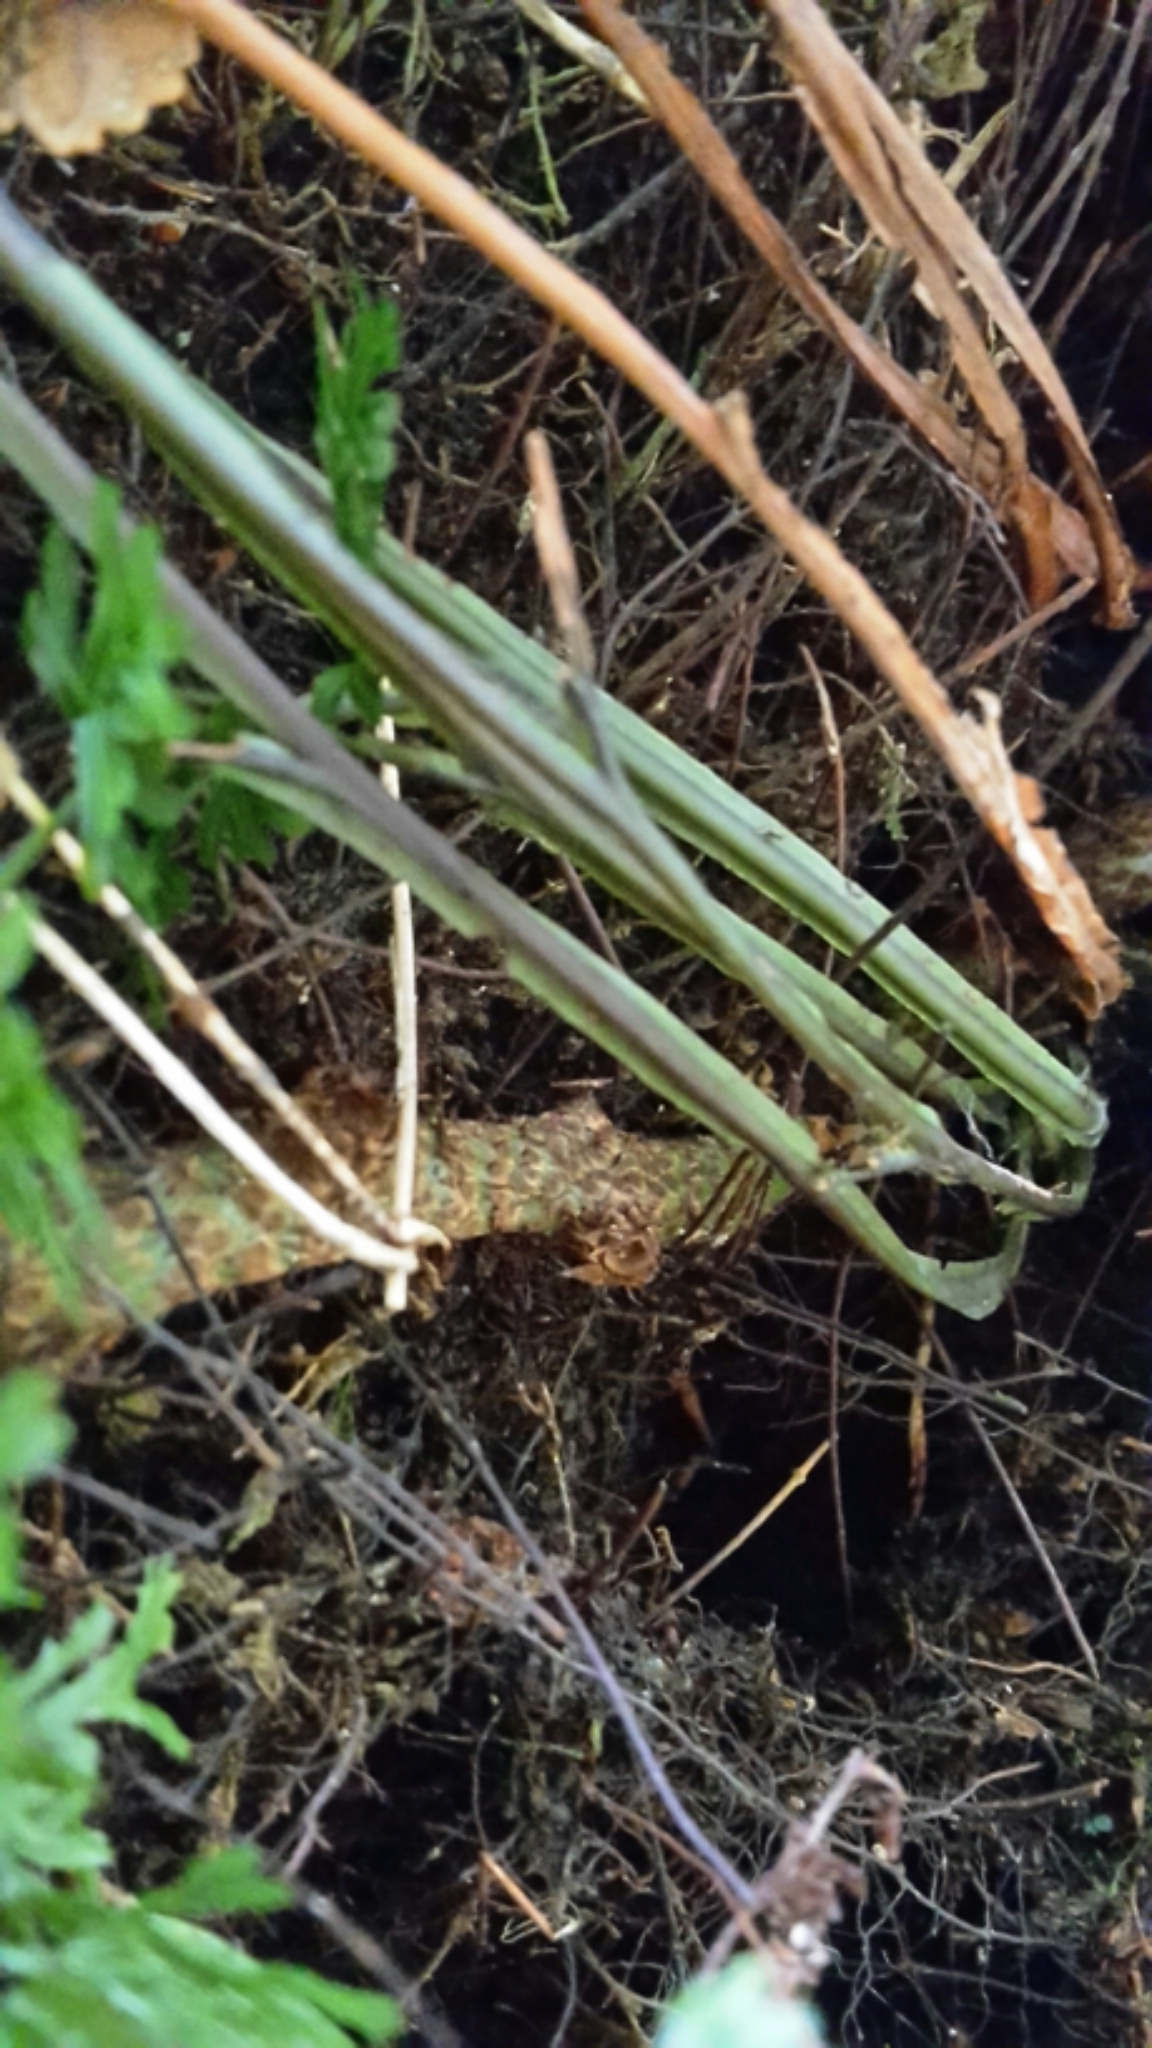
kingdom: Plantae
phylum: Tracheophyta
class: Polypodiopsida
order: Hymenophyllales
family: Hymenophyllaceae
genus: Hymenophyllum
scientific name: Hymenophyllum pulcherrimum
